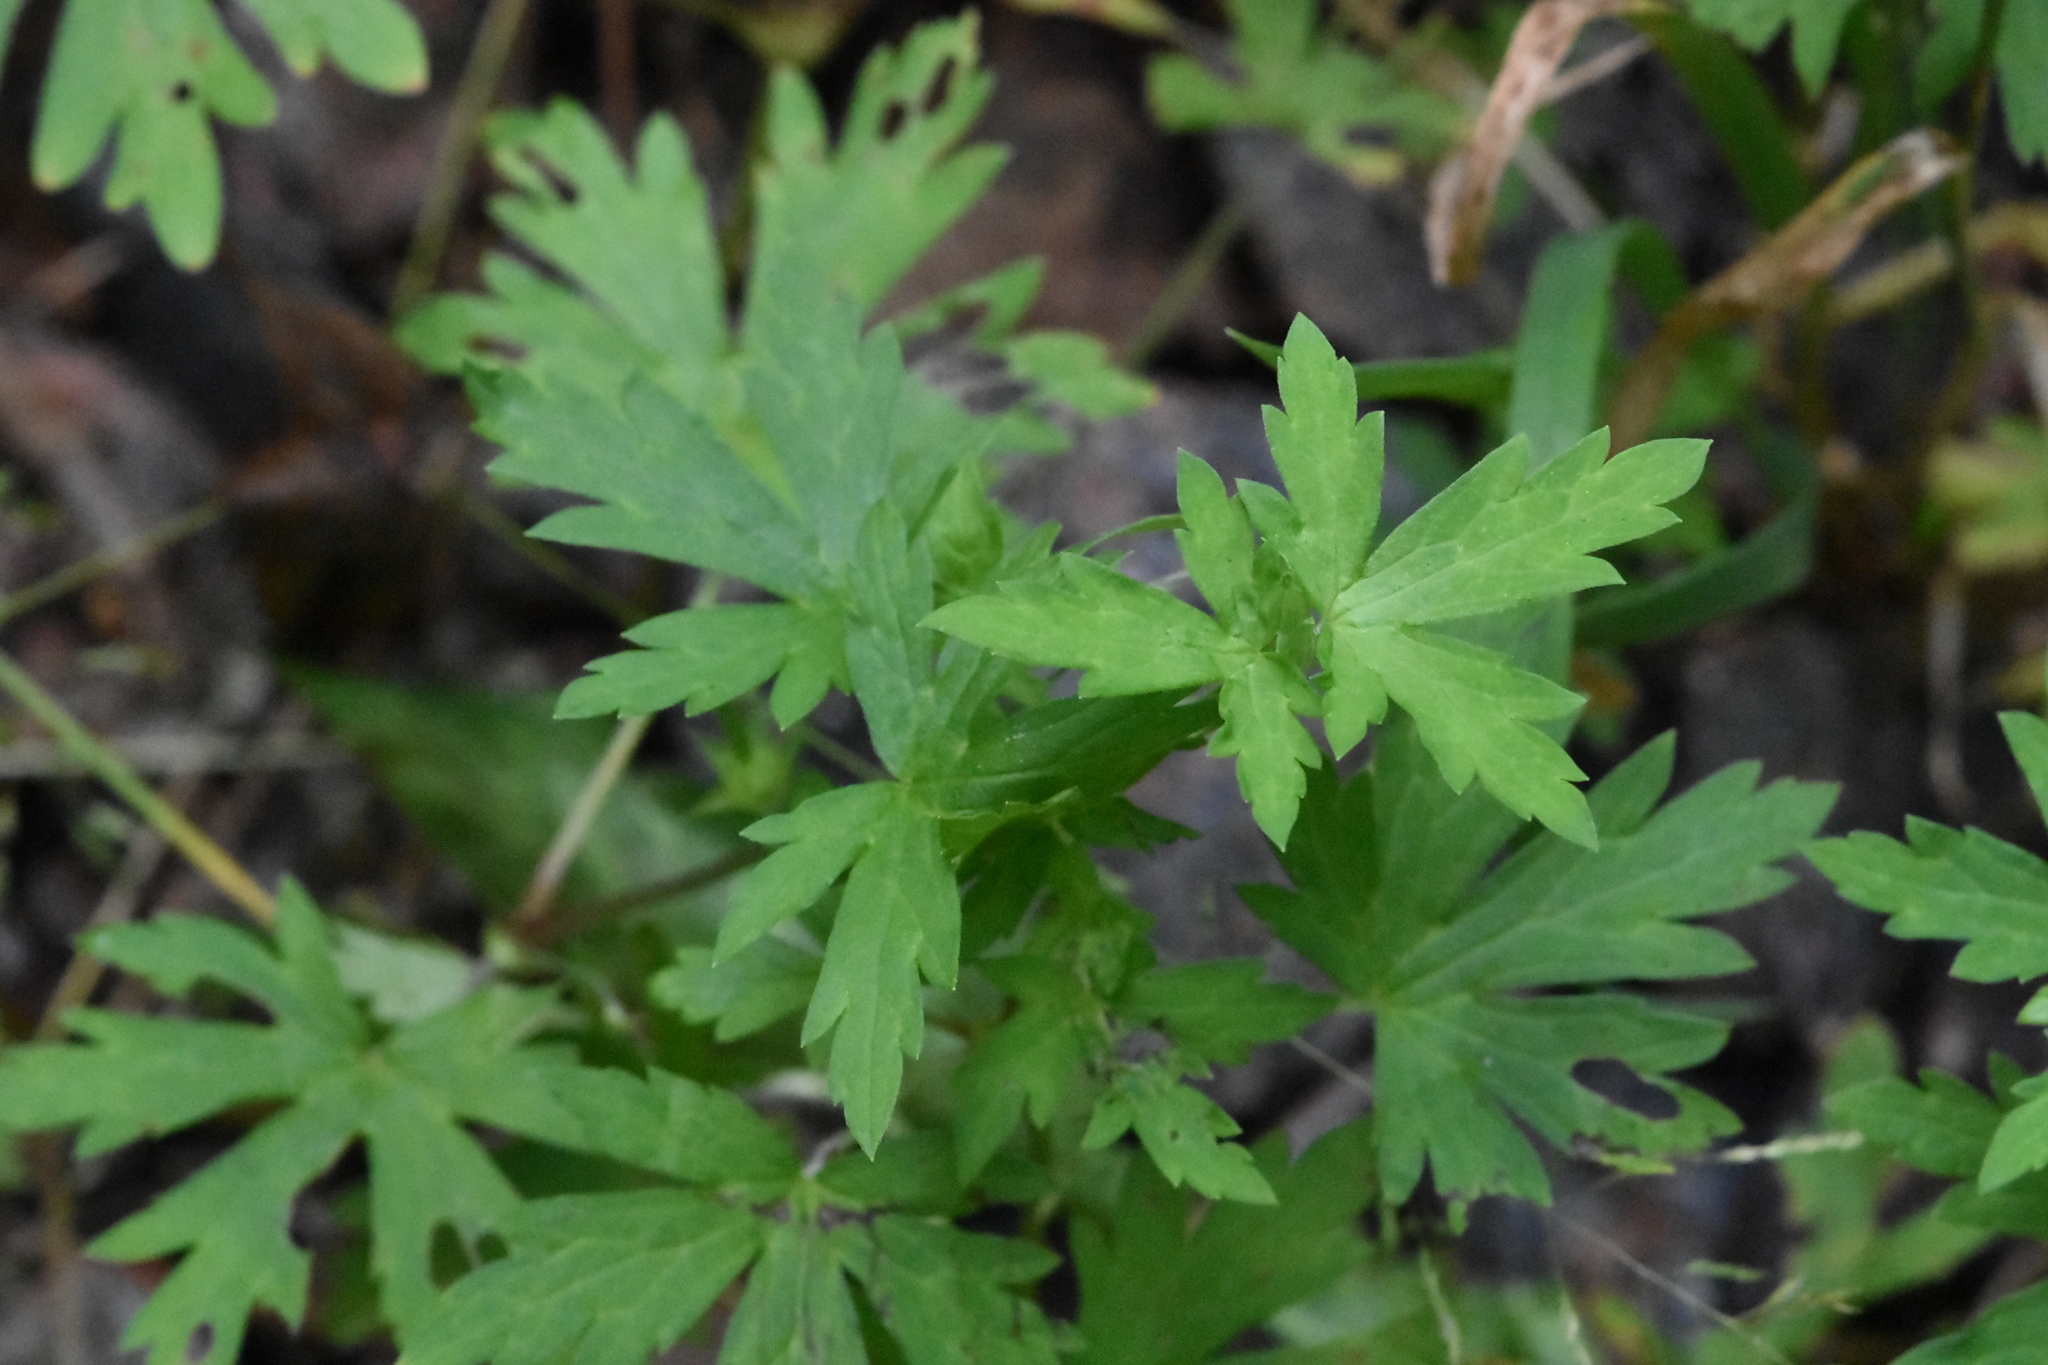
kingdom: Plantae
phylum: Tracheophyta
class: Magnoliopsida
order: Geraniales
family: Geraniaceae
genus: Geranium
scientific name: Geranium sibiricum
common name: Siberian crane's-bill
